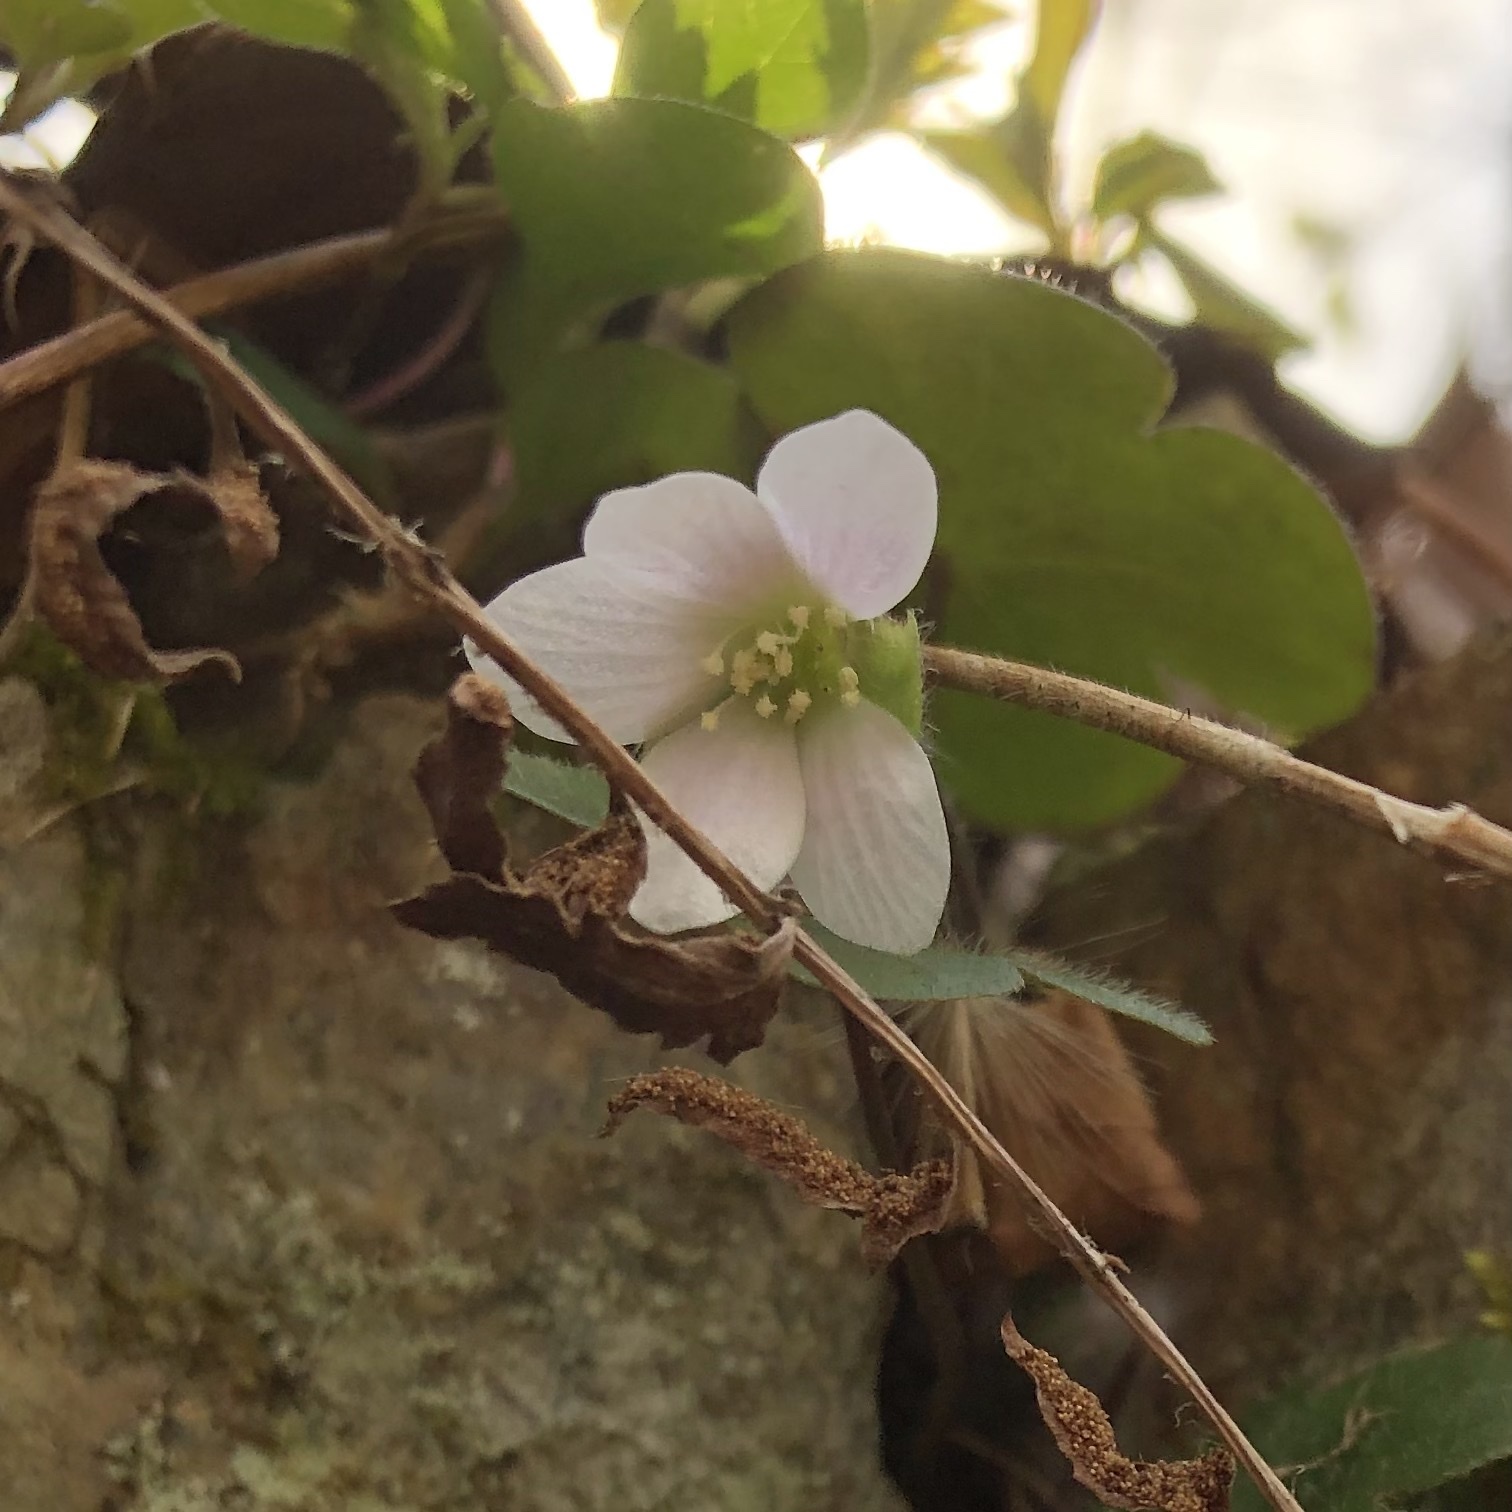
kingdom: Plantae
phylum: Tracheophyta
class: Magnoliopsida
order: Ranunculales
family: Ranunculaceae
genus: Hepatica
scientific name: Hepatica americana
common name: American hepatica
